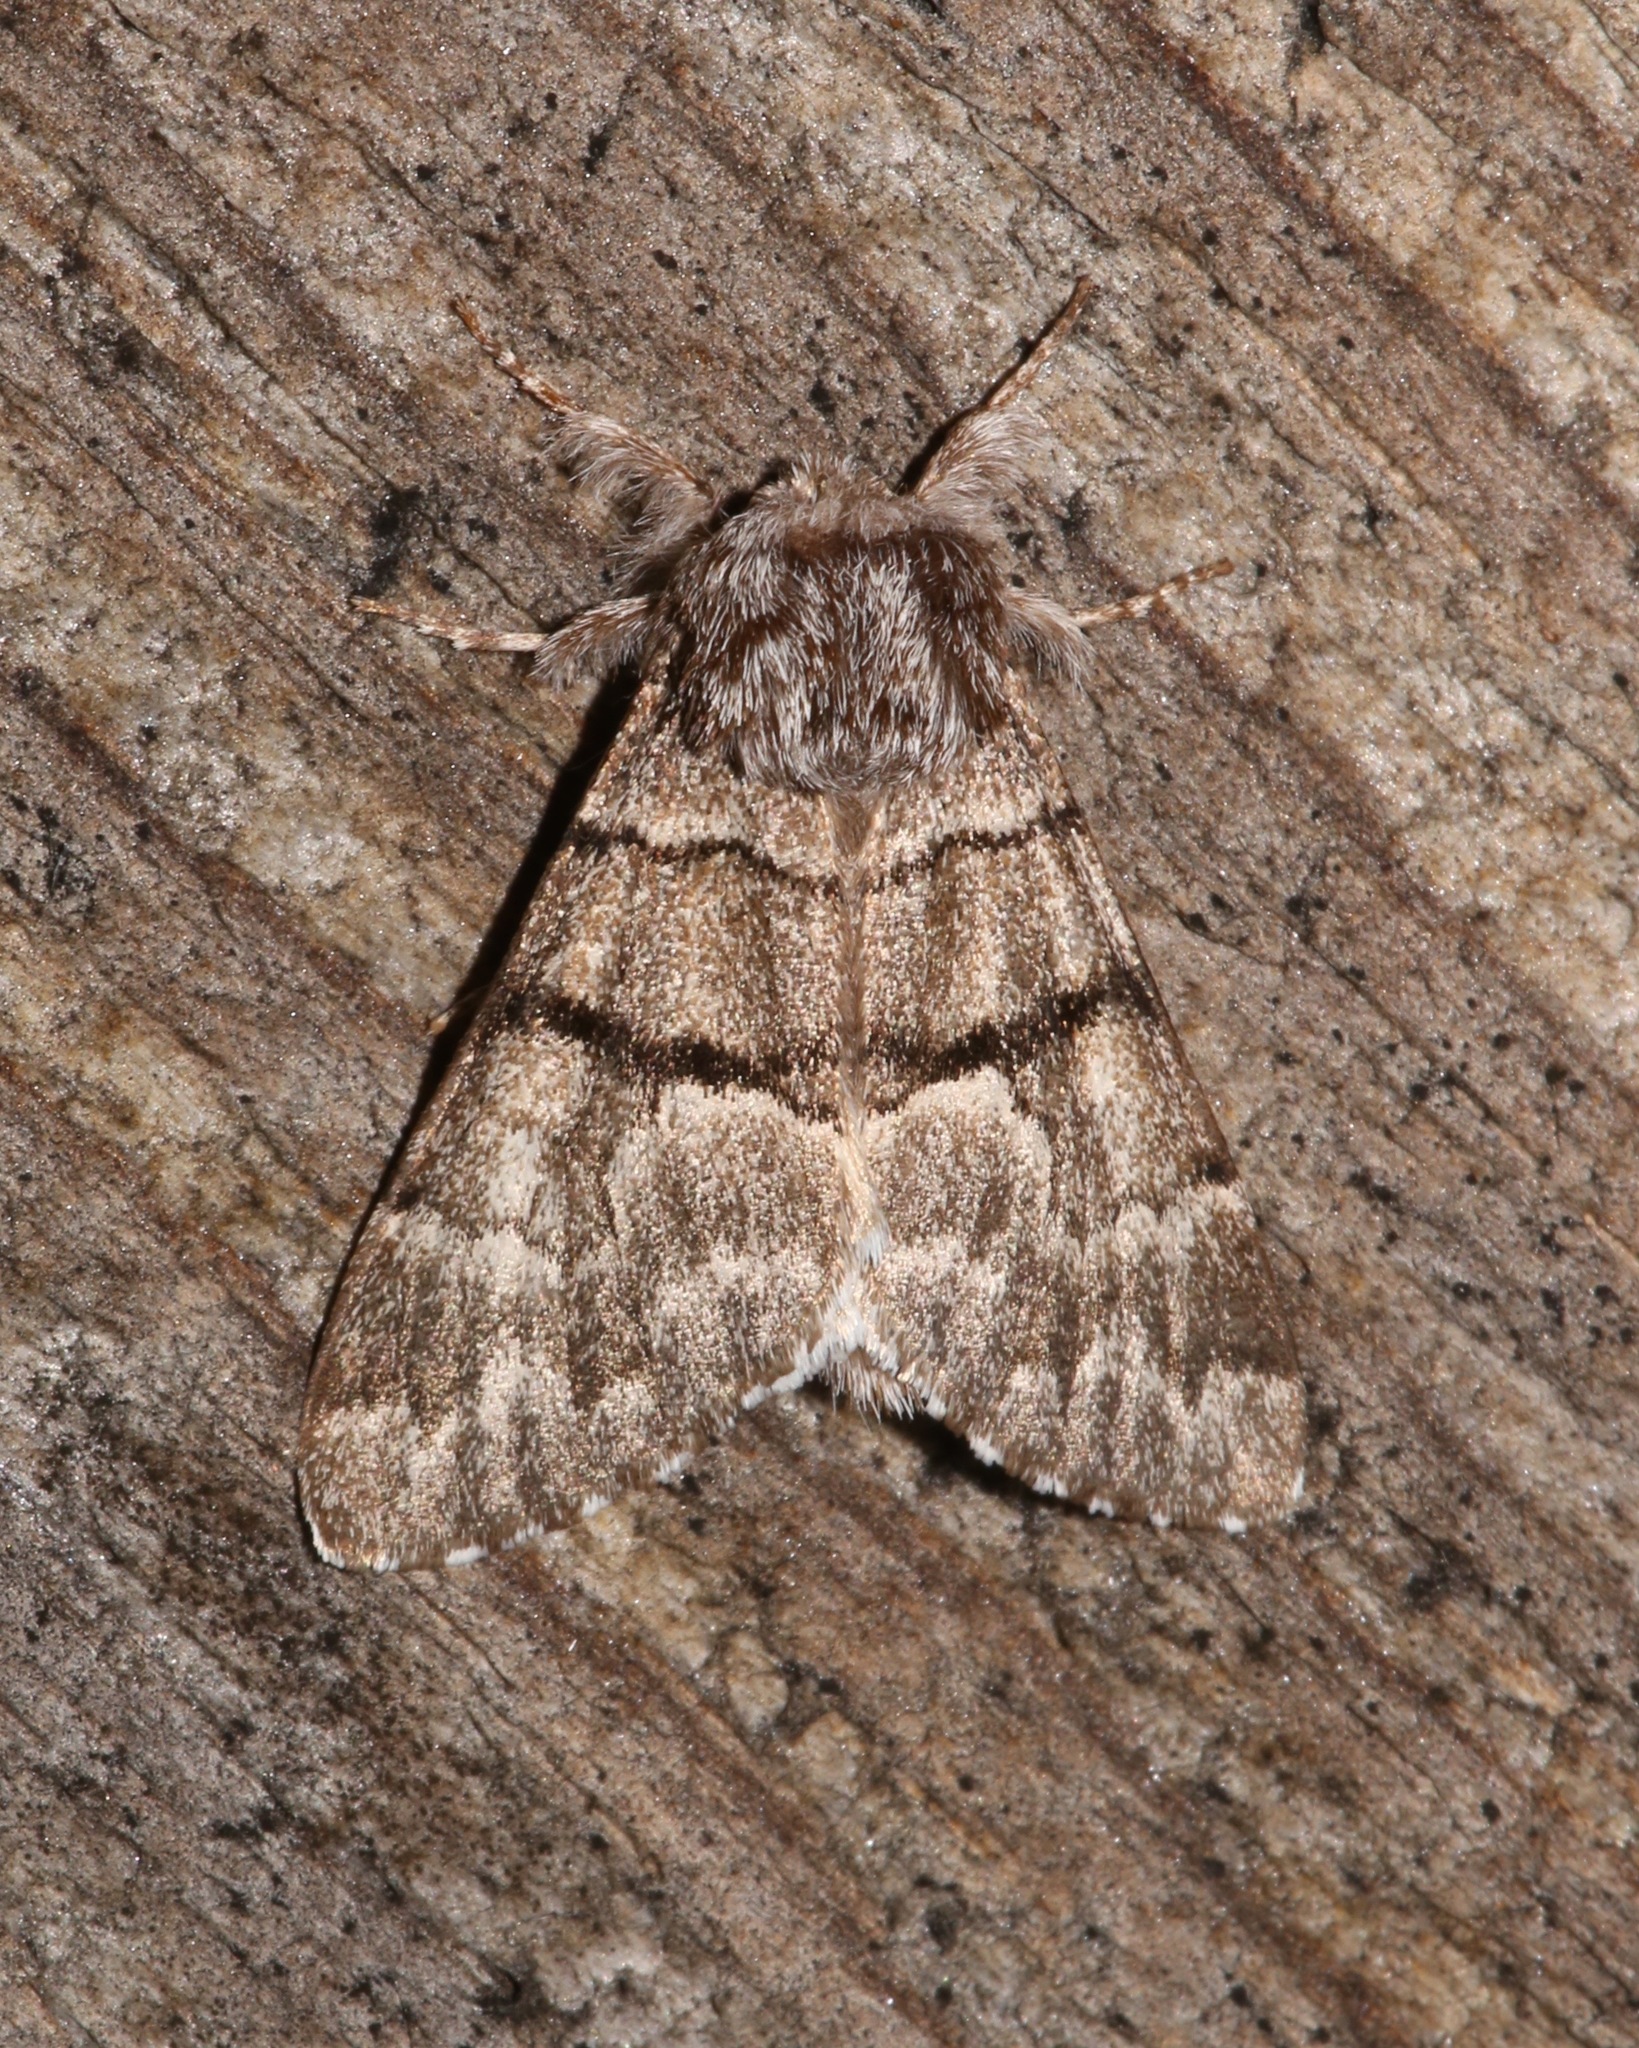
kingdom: Animalia
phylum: Arthropoda
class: Insecta
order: Lepidoptera
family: Noctuidae
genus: Panthea
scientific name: Panthea furcilla
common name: Eastern panthea moth
